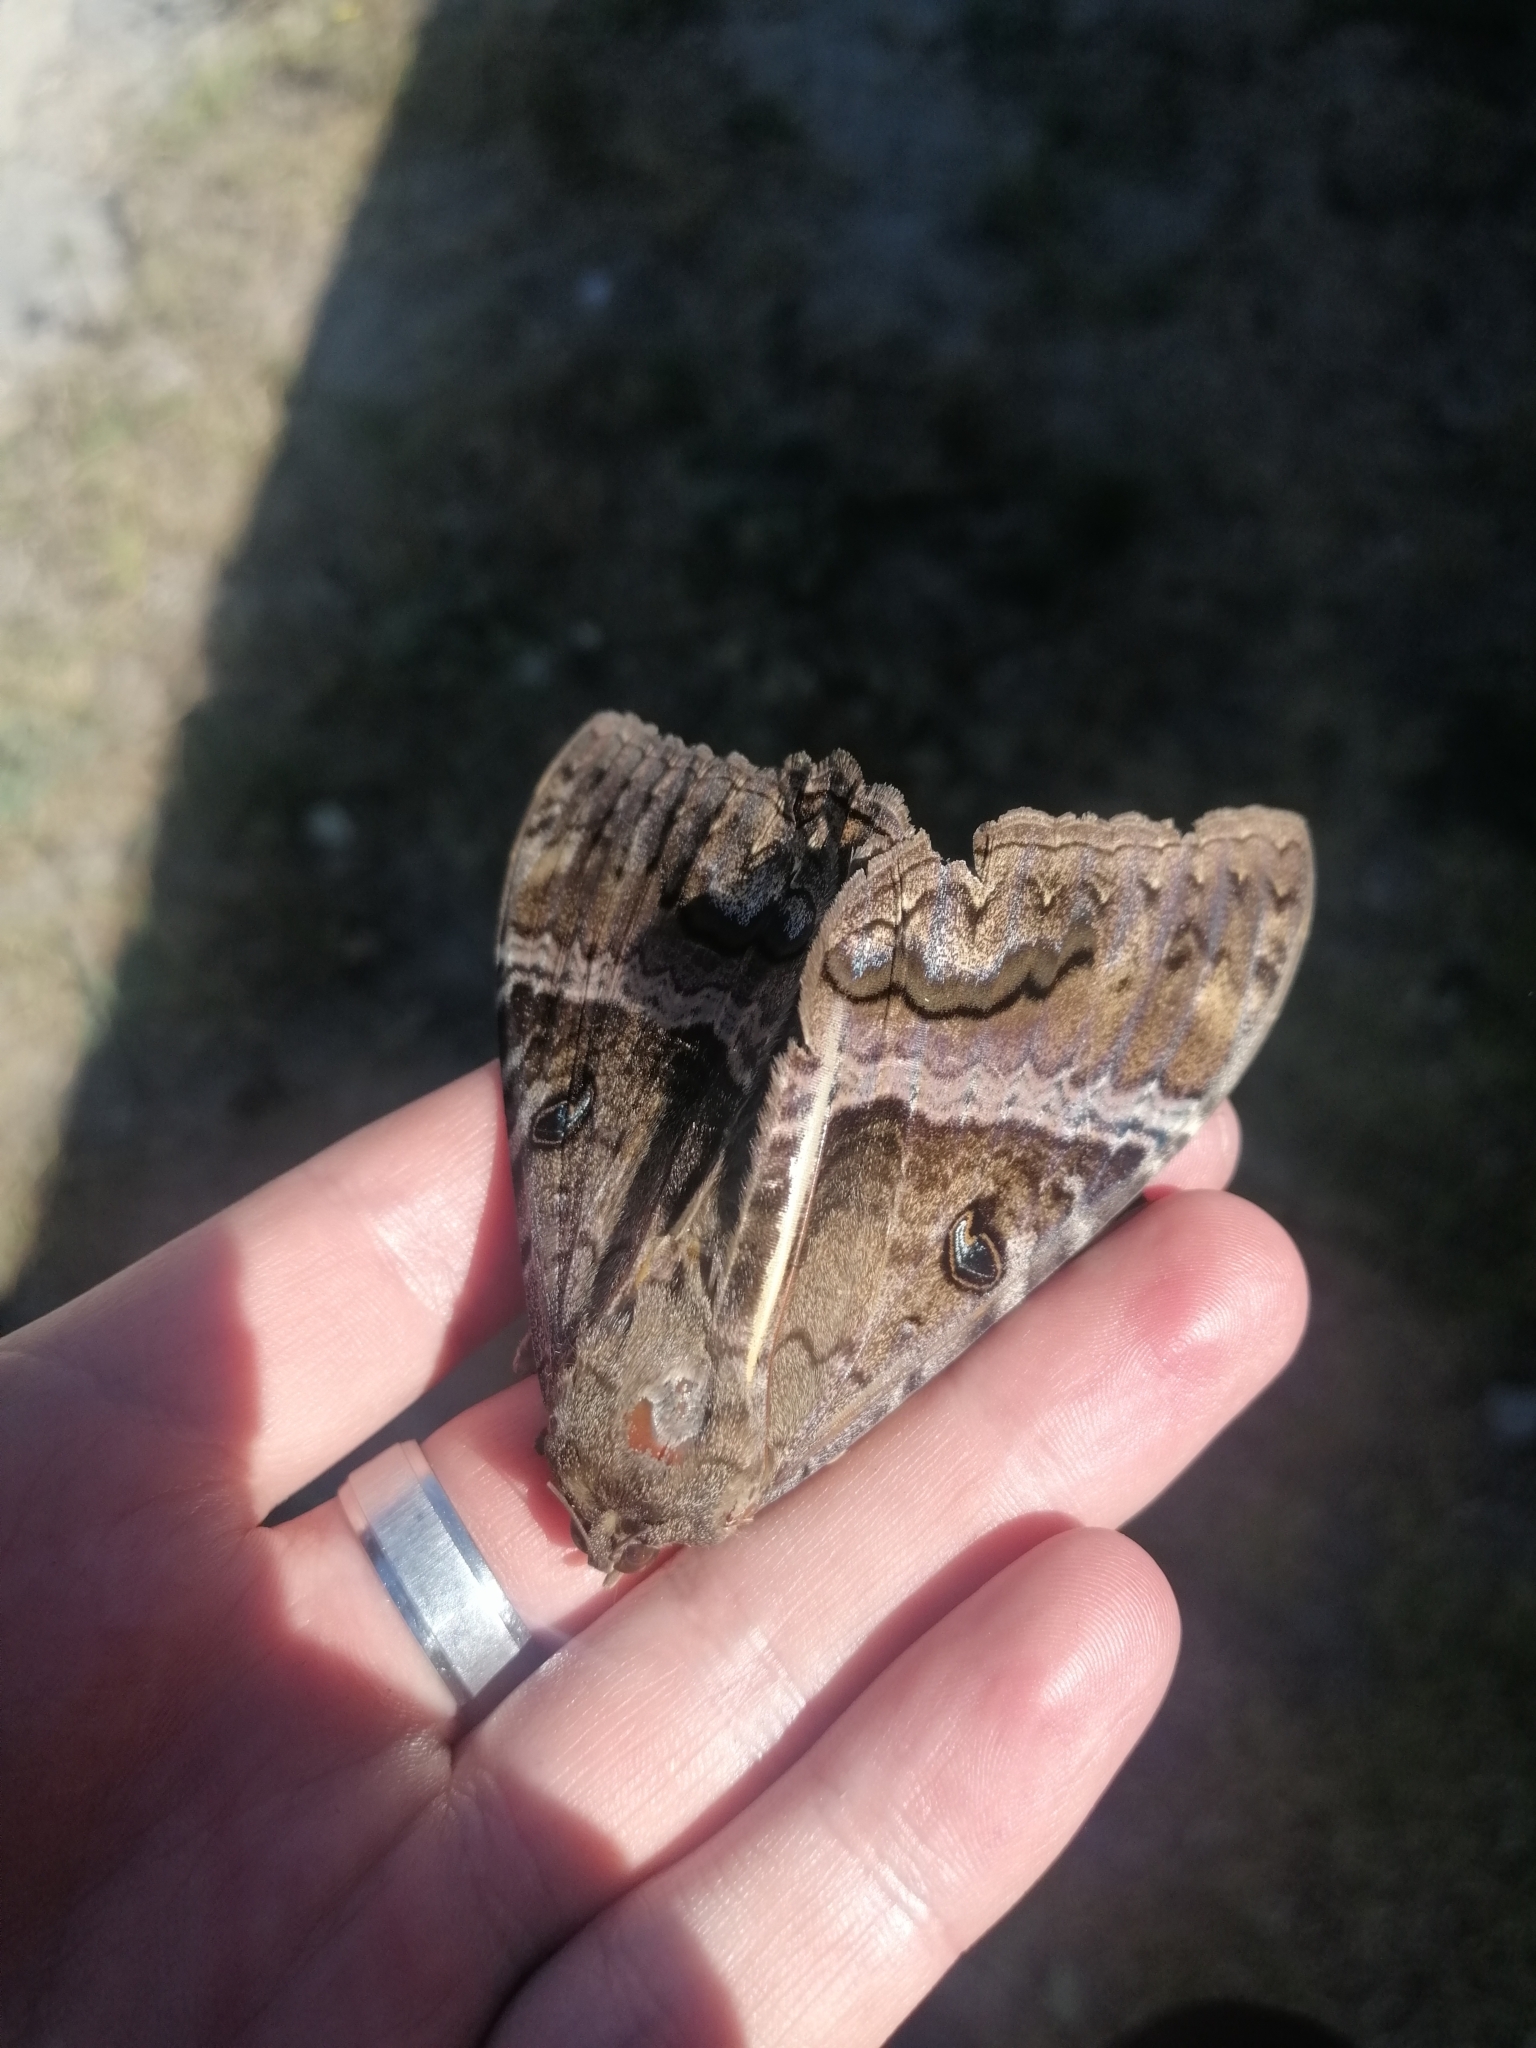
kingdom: Animalia
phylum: Arthropoda
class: Insecta
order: Lepidoptera
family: Erebidae
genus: Ascalapha
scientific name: Ascalapha odorata
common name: Black witch
